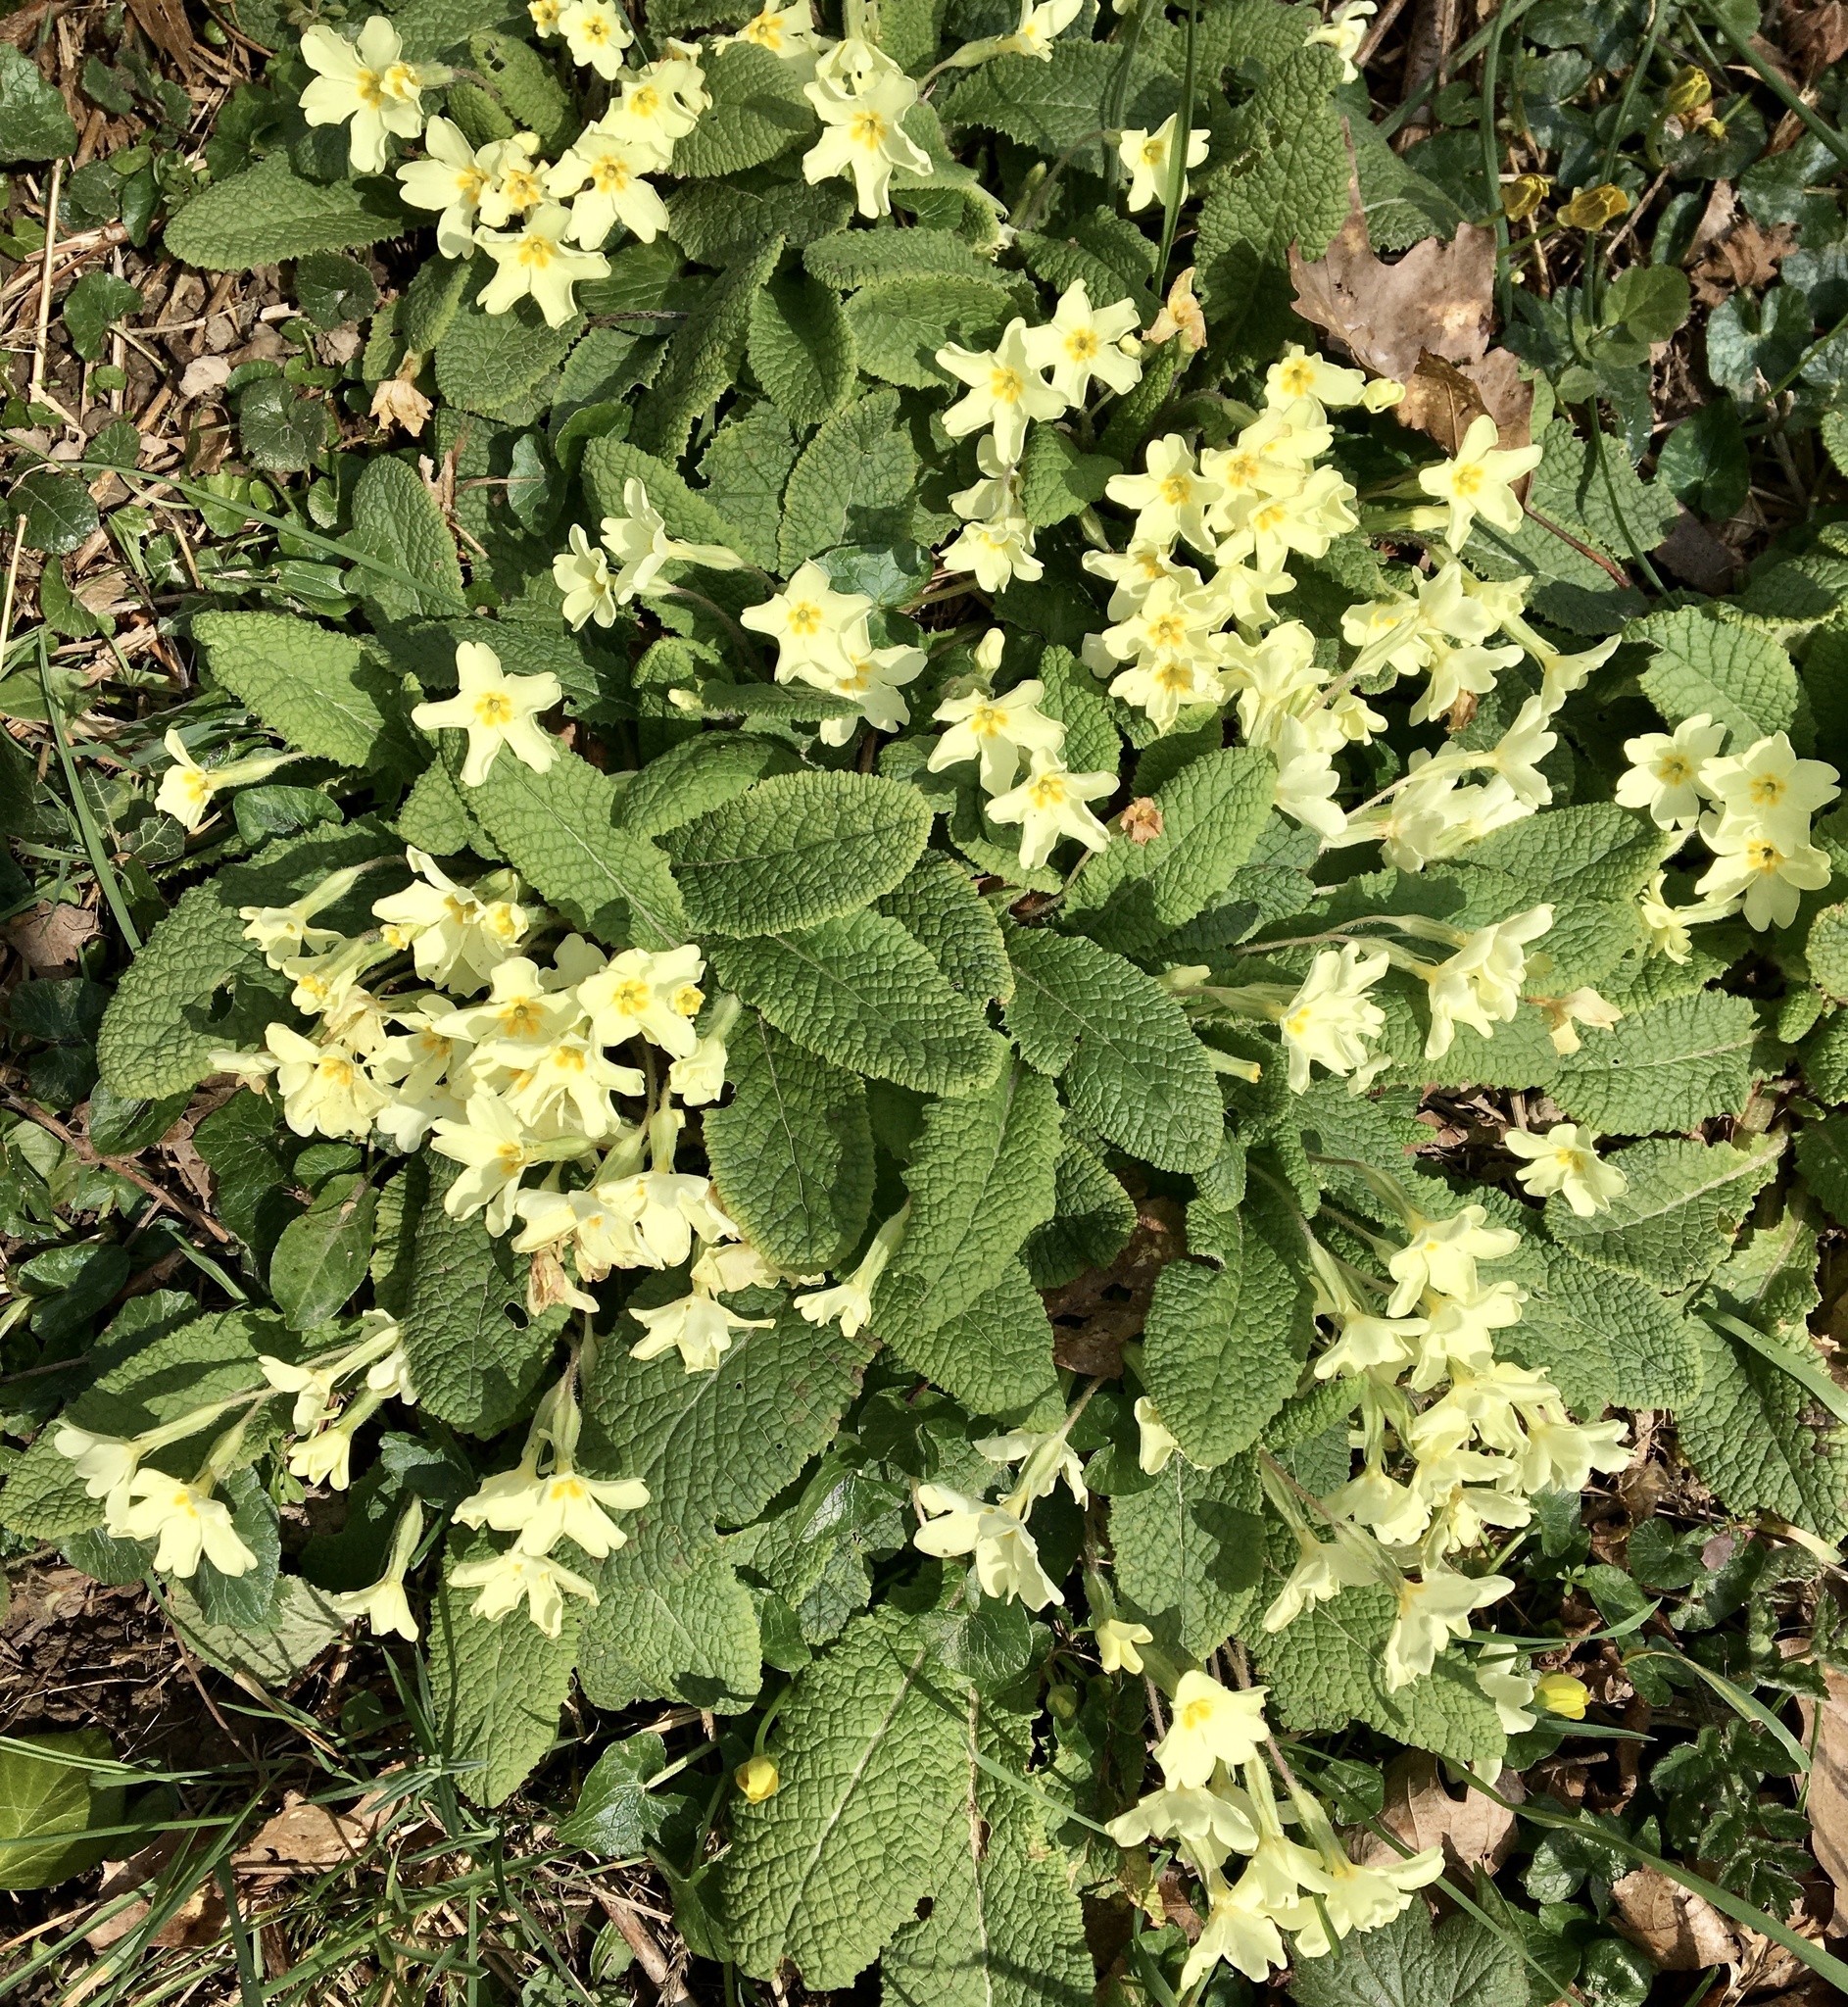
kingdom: Plantae
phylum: Tracheophyta
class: Magnoliopsida
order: Ericales
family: Primulaceae
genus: Primula
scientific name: Primula vulgaris
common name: Primrose
